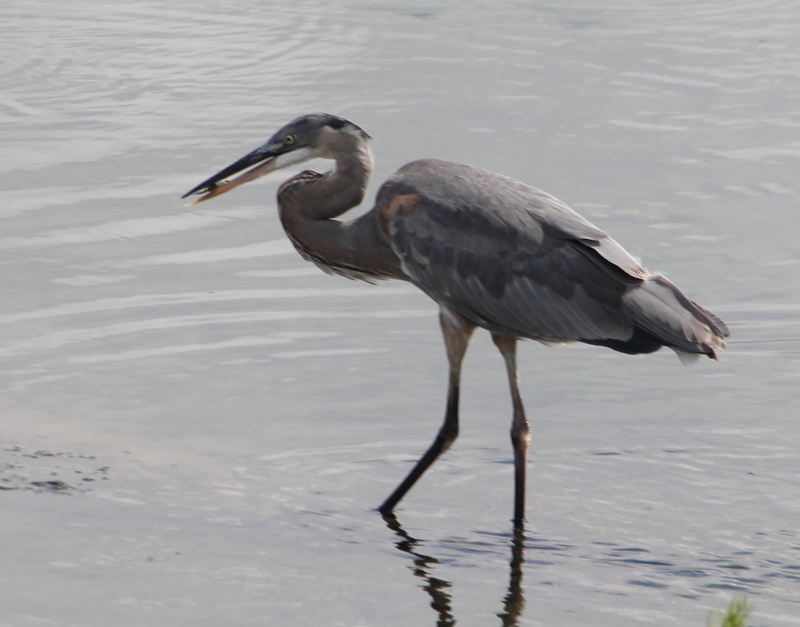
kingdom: Animalia
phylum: Chordata
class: Aves
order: Pelecaniformes
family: Ardeidae
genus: Ardea
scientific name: Ardea herodias
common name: Great blue heron
